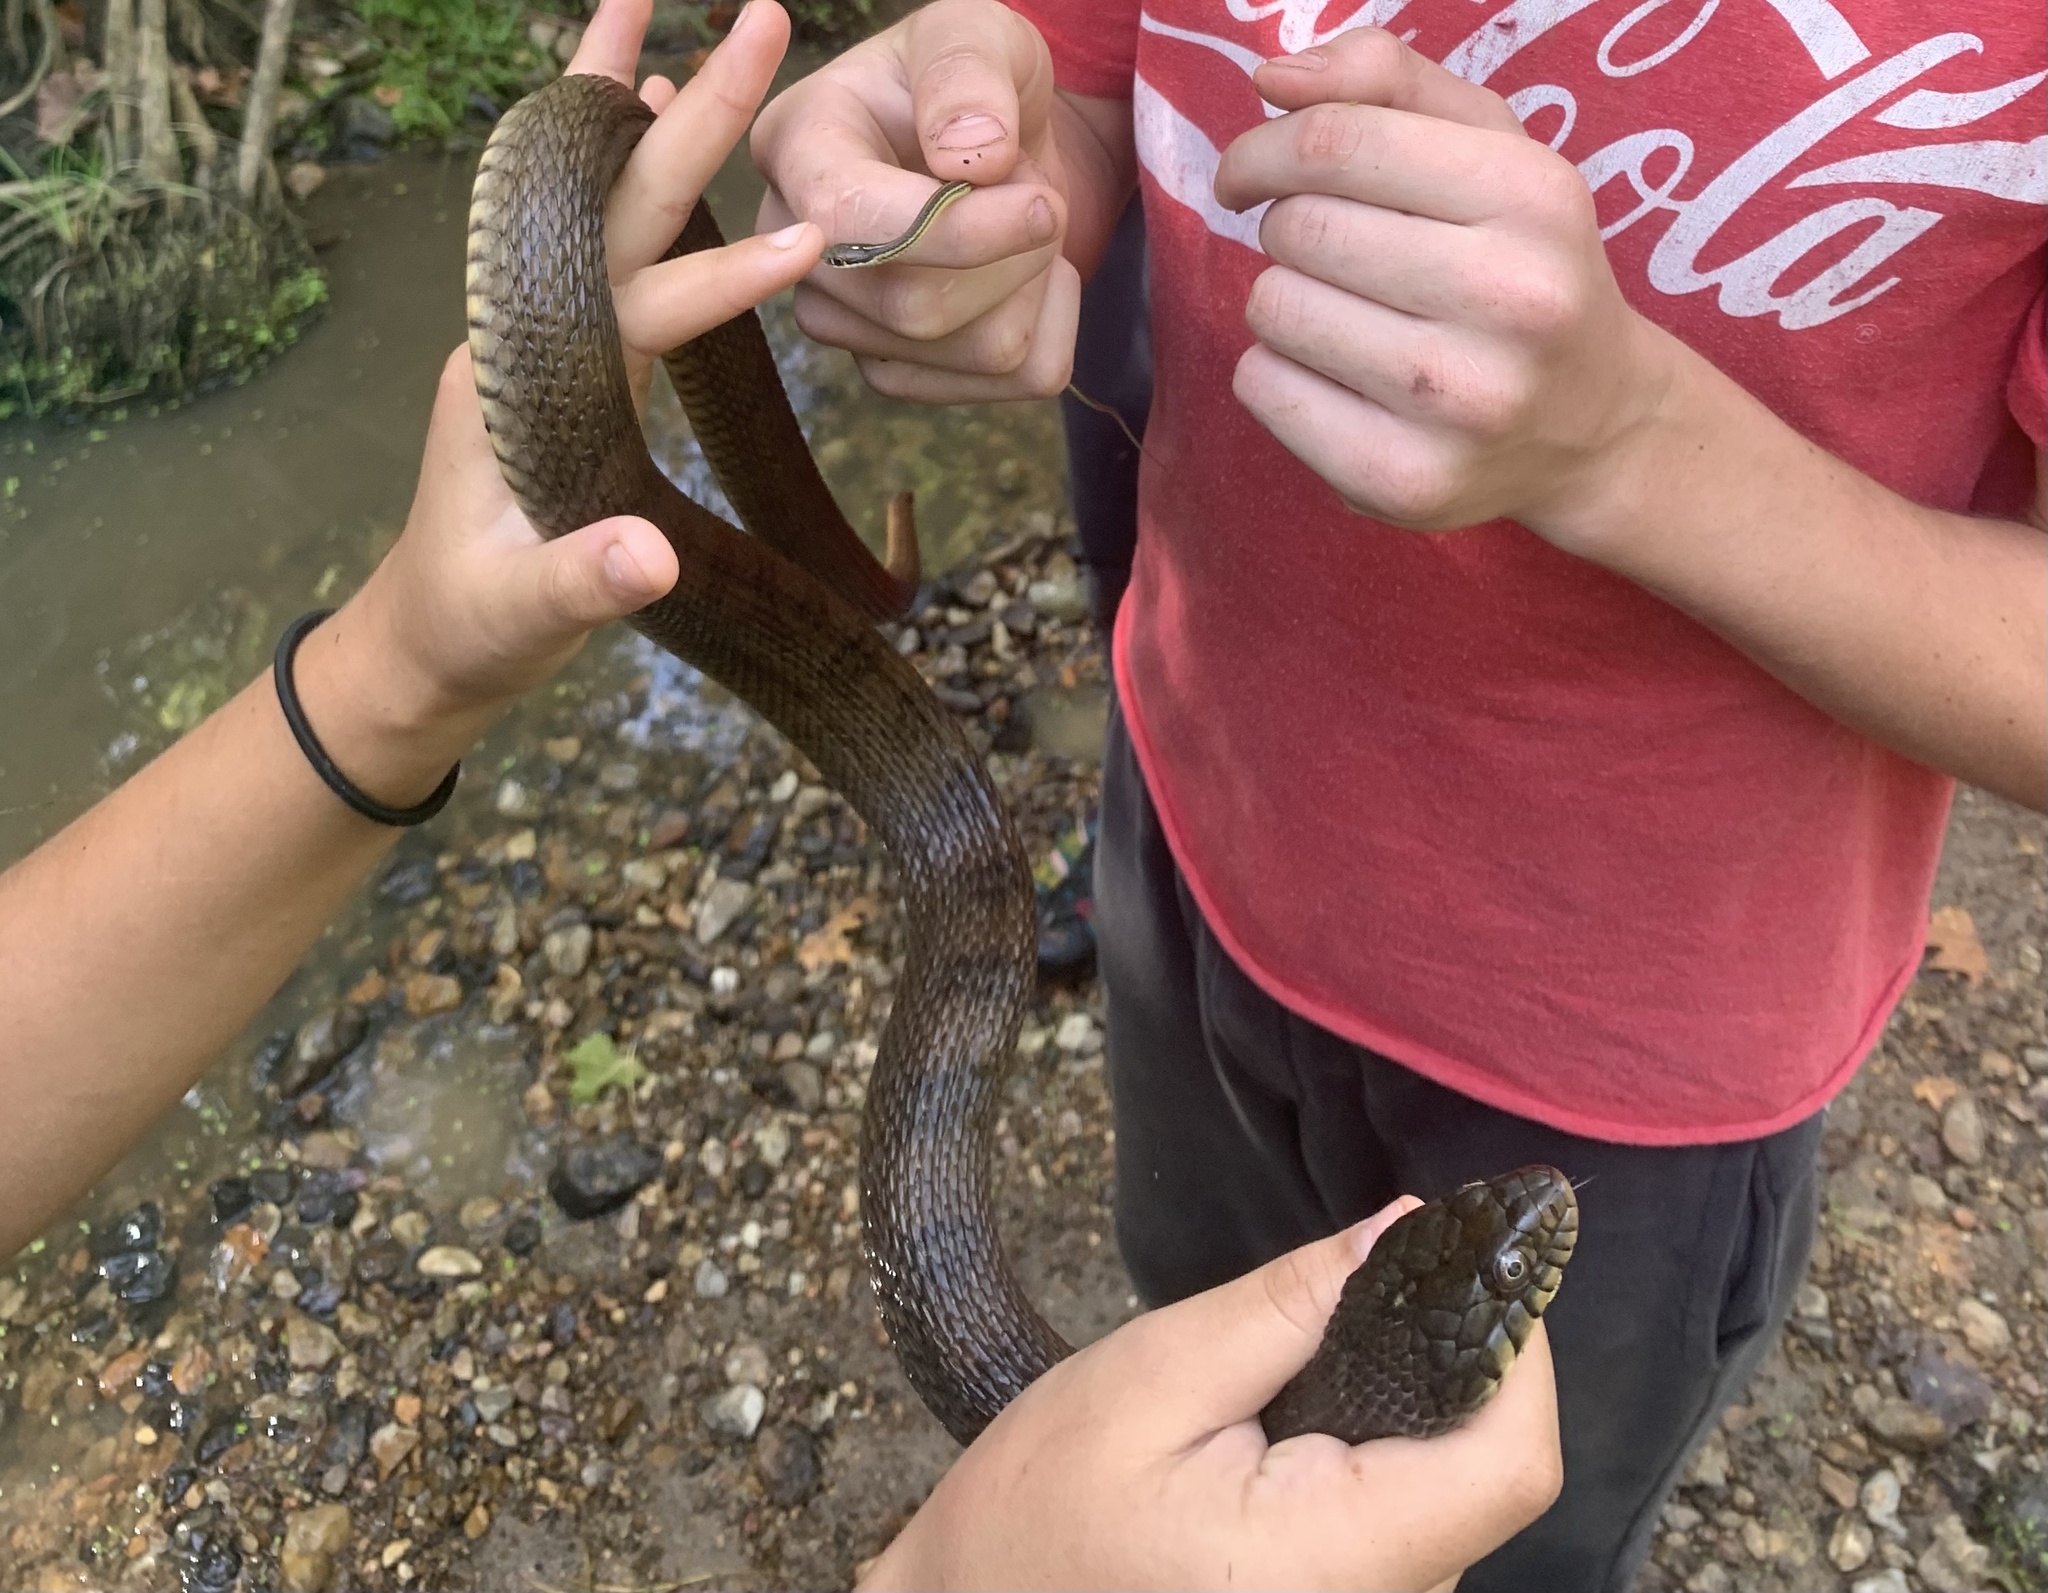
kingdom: Animalia
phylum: Chordata
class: Squamata
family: Colubridae
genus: Nerodia
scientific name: Nerodia erythrogaster
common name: Plainbelly water snake
